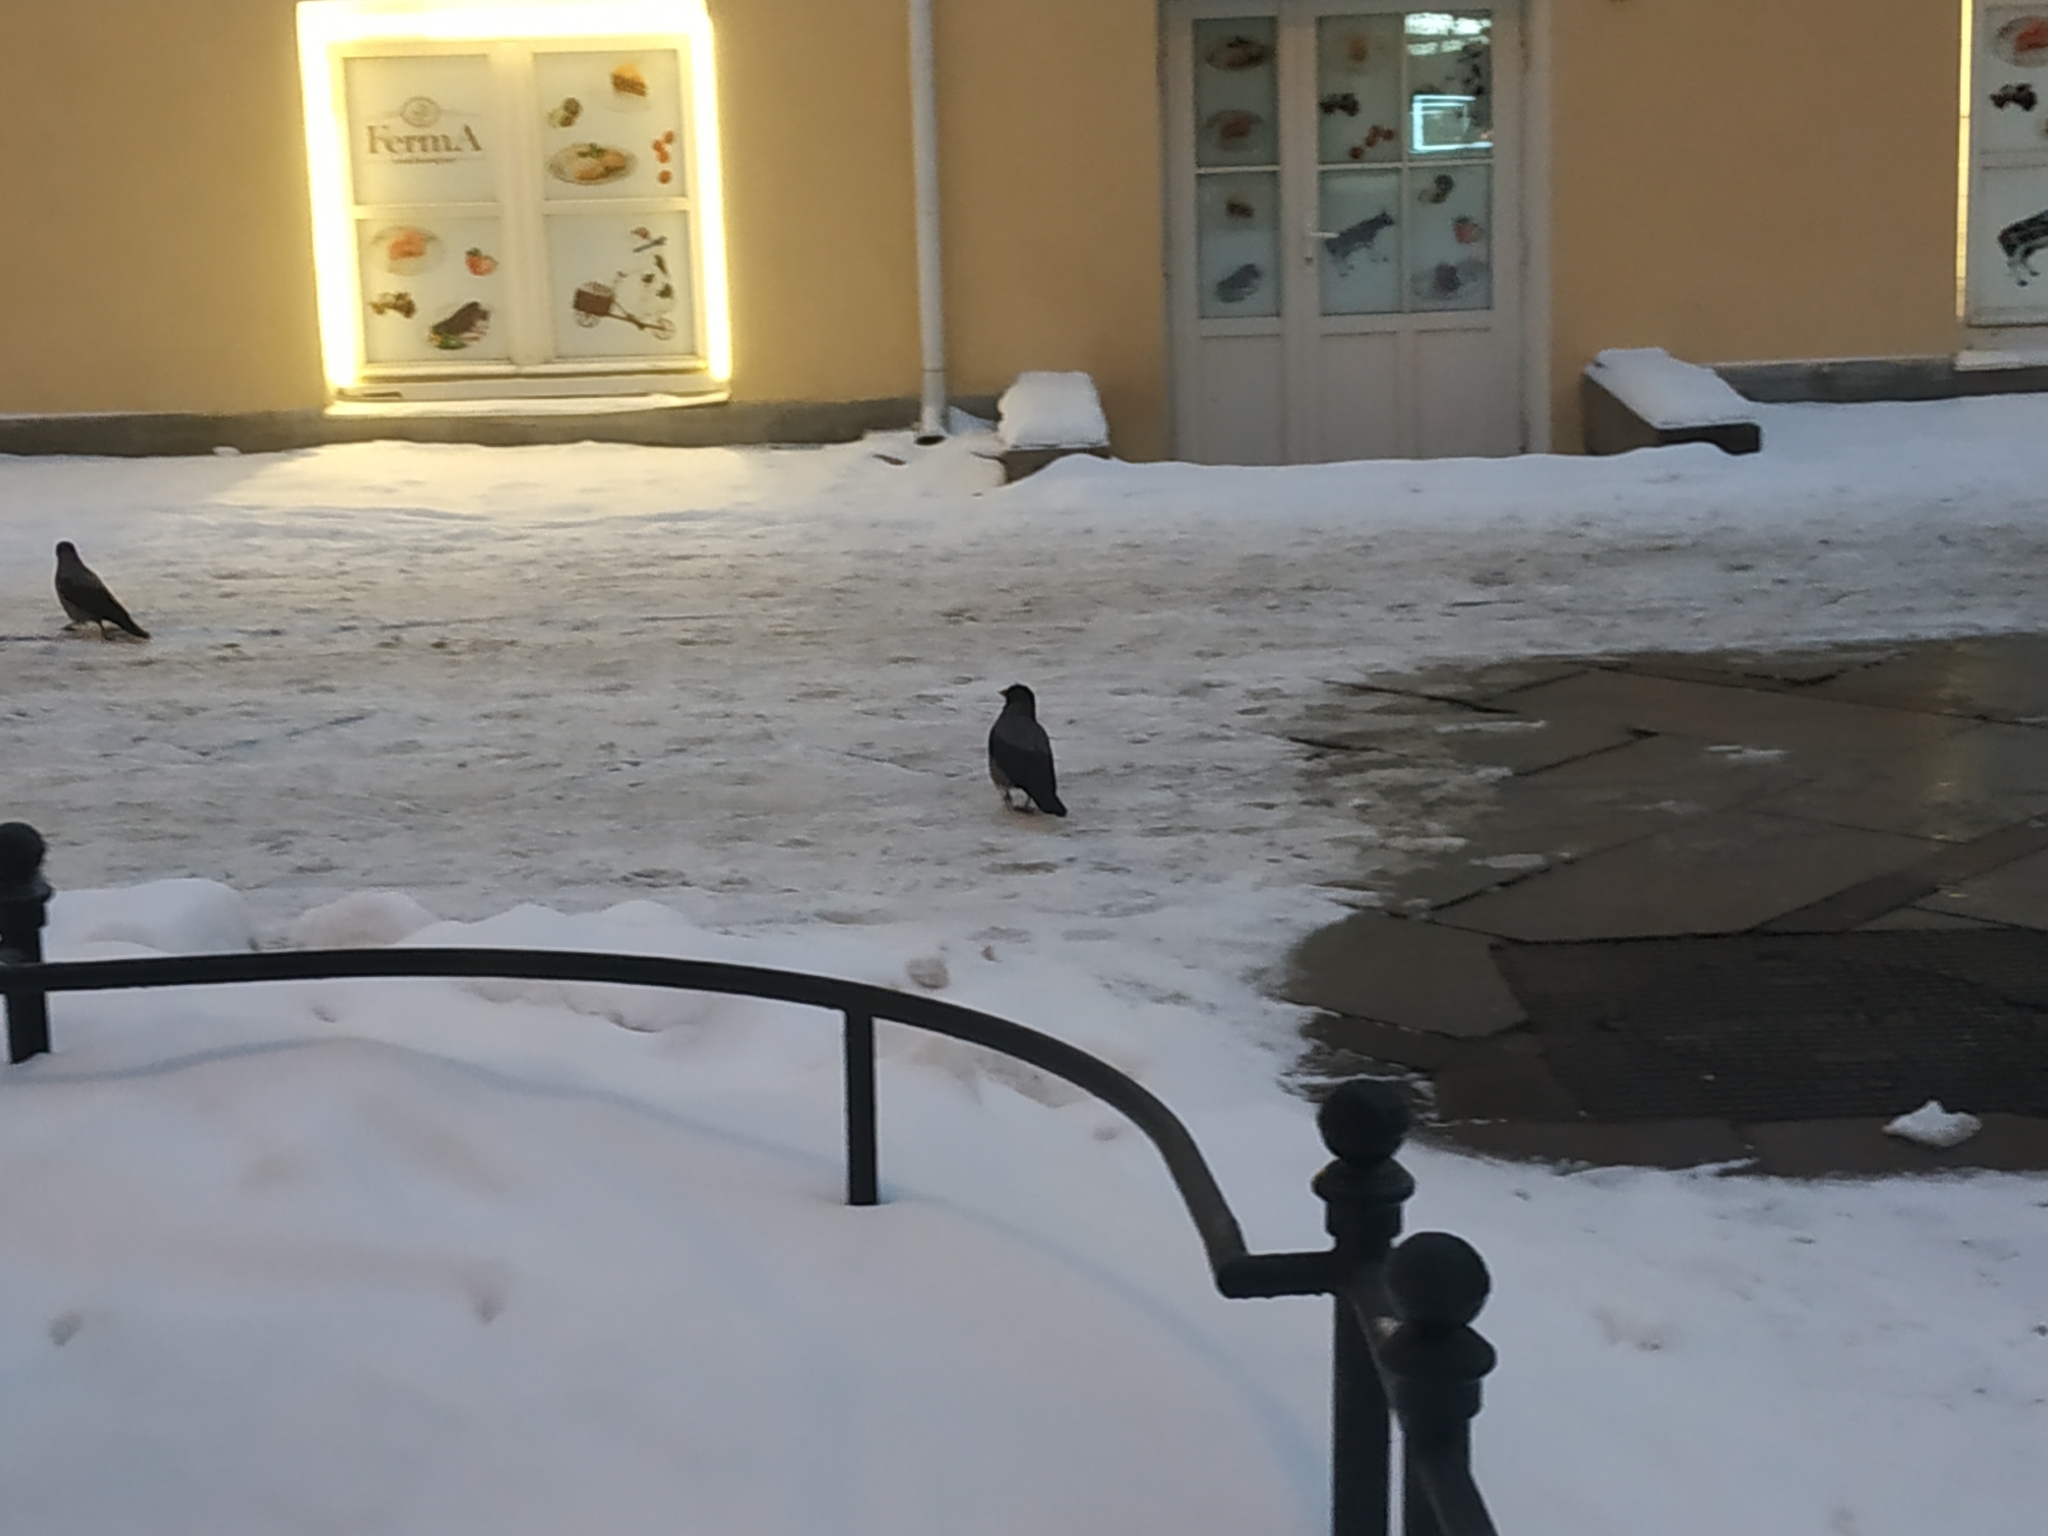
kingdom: Animalia
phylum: Chordata
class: Aves
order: Passeriformes
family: Corvidae
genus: Corvus
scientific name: Corvus cornix
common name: Hooded crow
